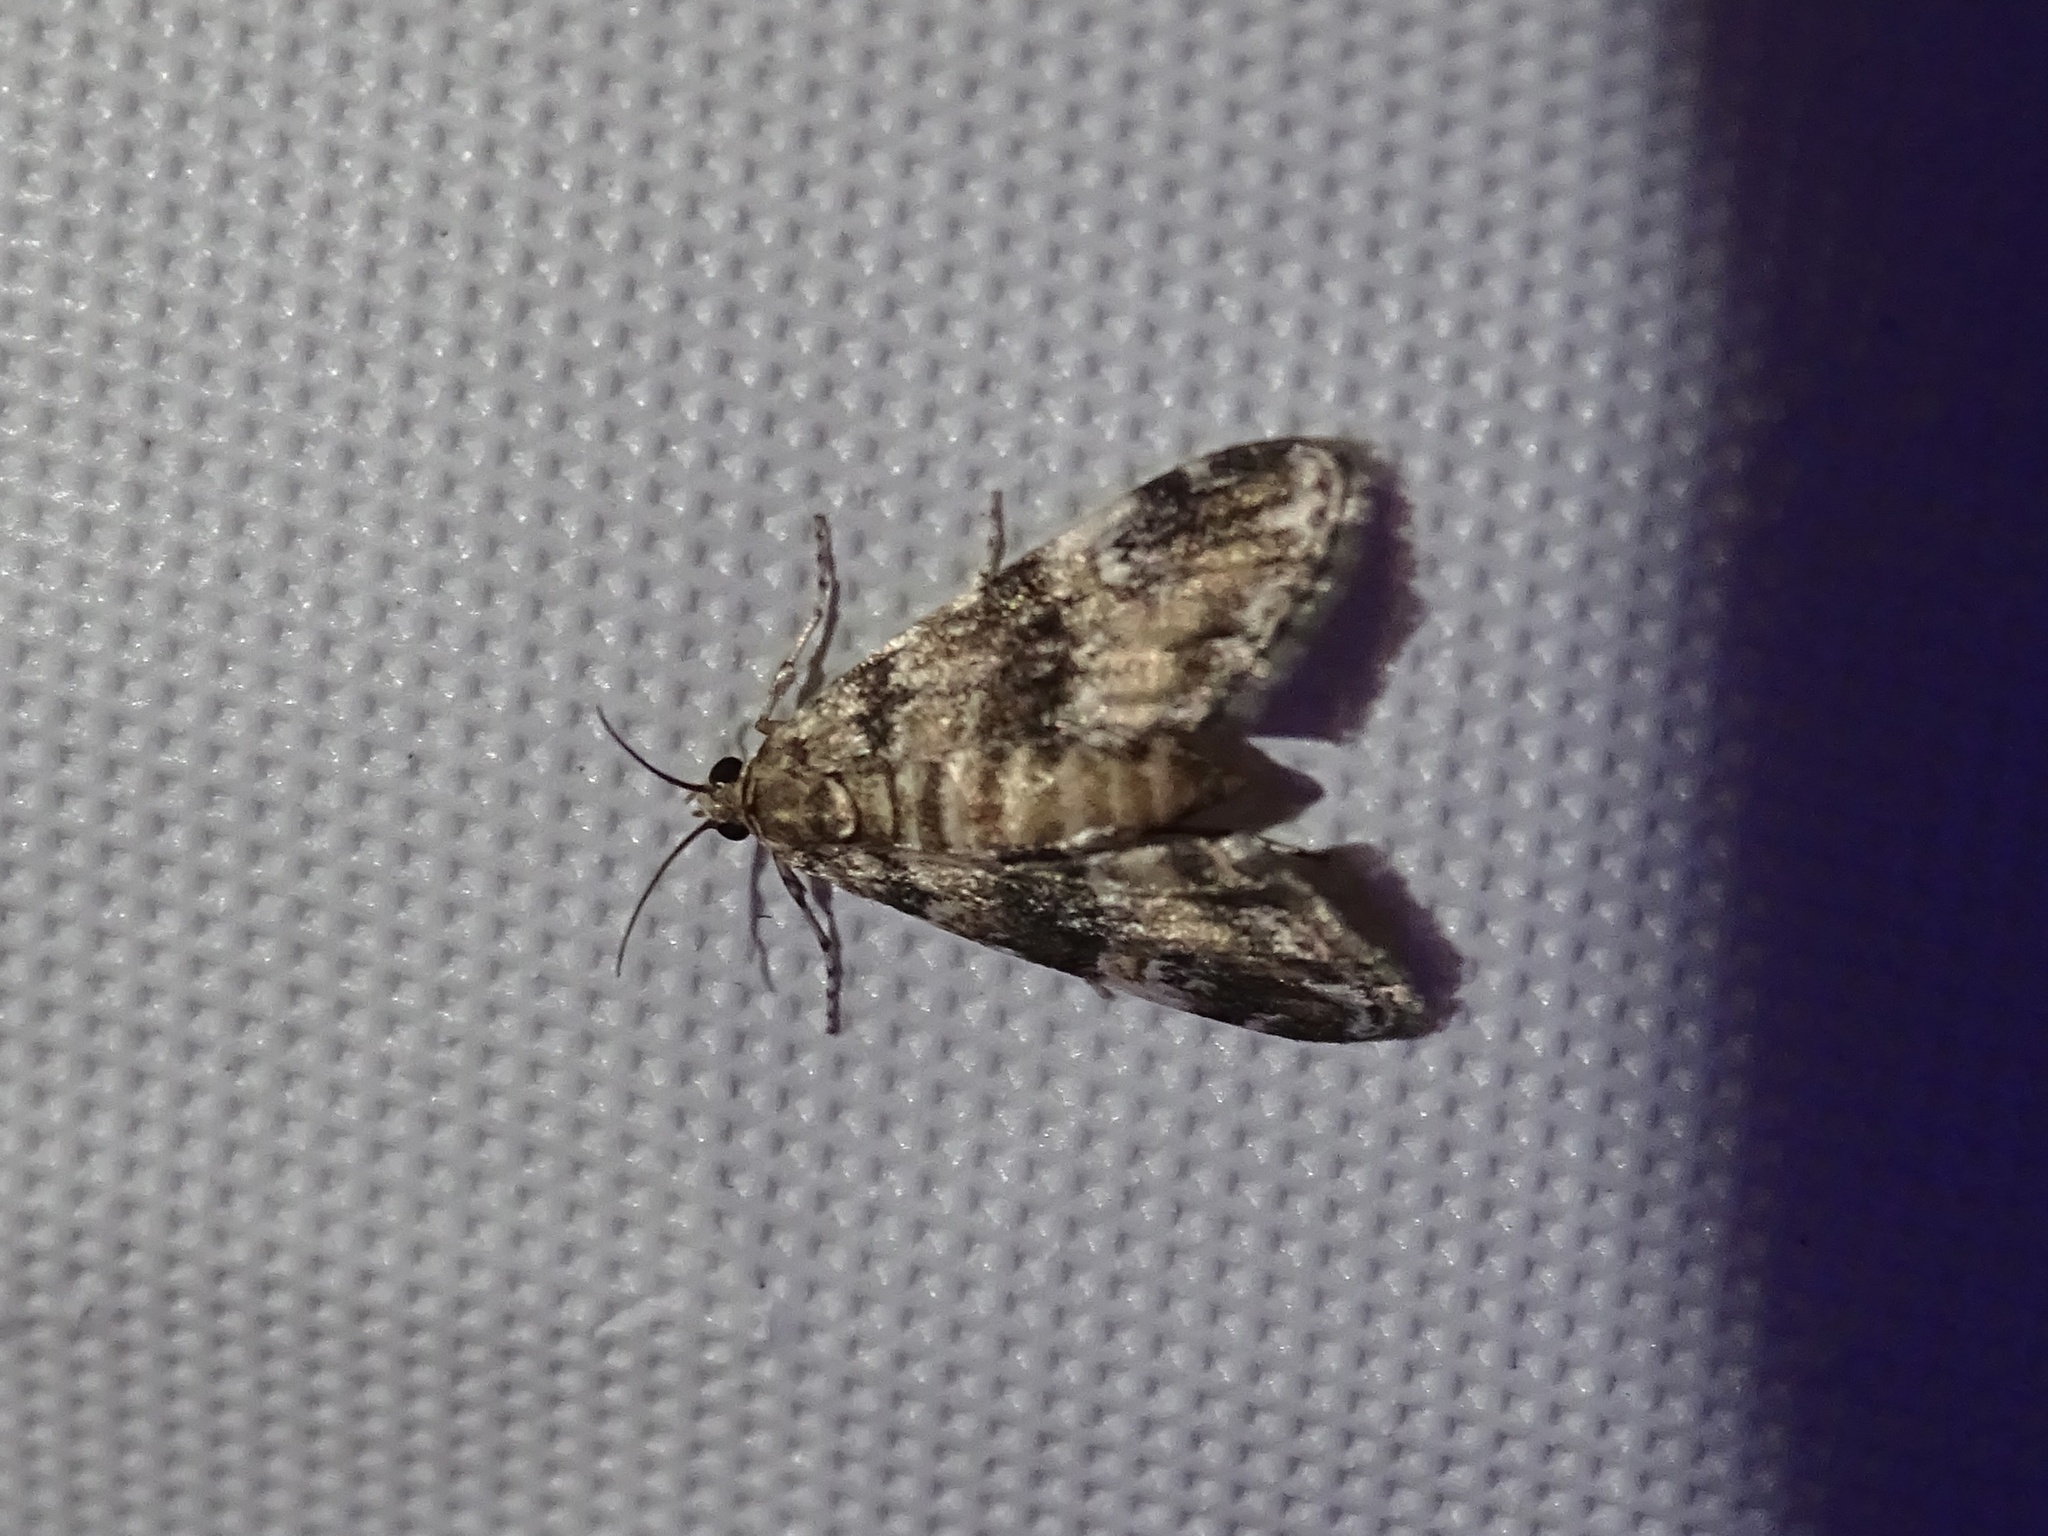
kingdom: Animalia
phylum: Arthropoda
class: Insecta
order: Lepidoptera
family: Crambidae
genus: Elophila
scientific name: Elophila obliteralis
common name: Waterlily leafcutter moth
